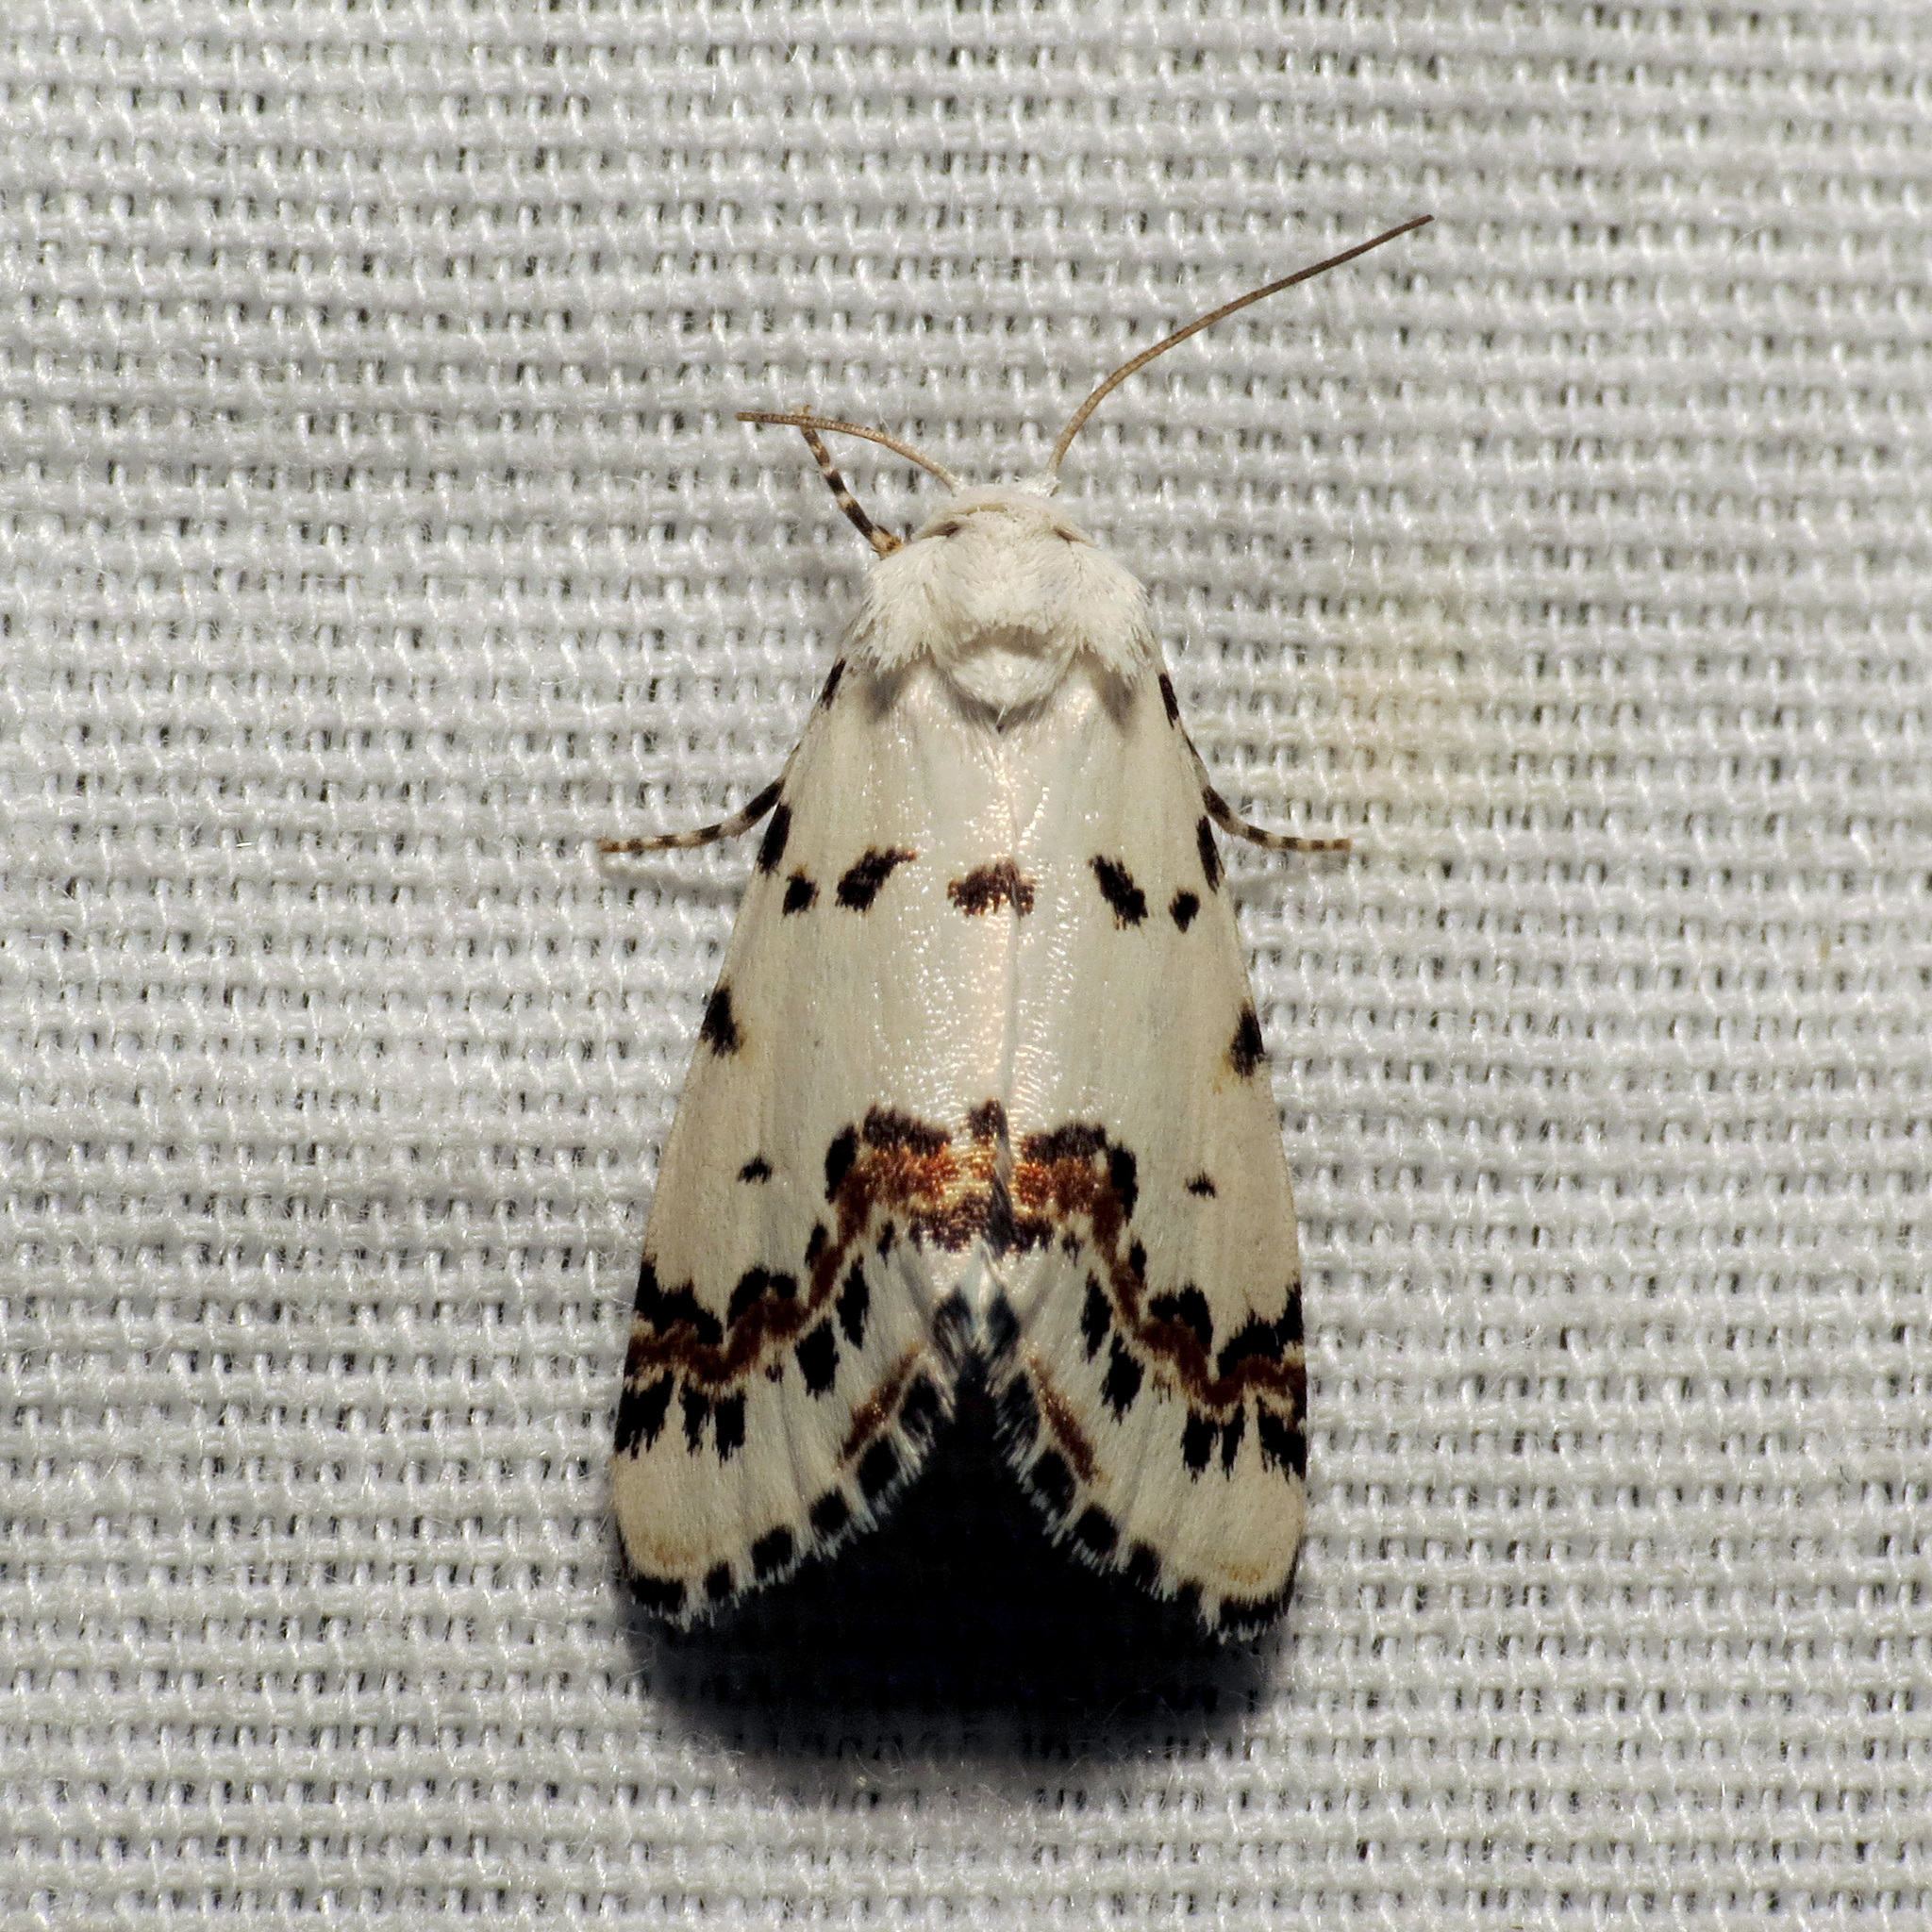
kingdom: Animalia
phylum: Arthropoda
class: Insecta
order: Lepidoptera
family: Noctuidae
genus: Grotella
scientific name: Grotella tricolor
